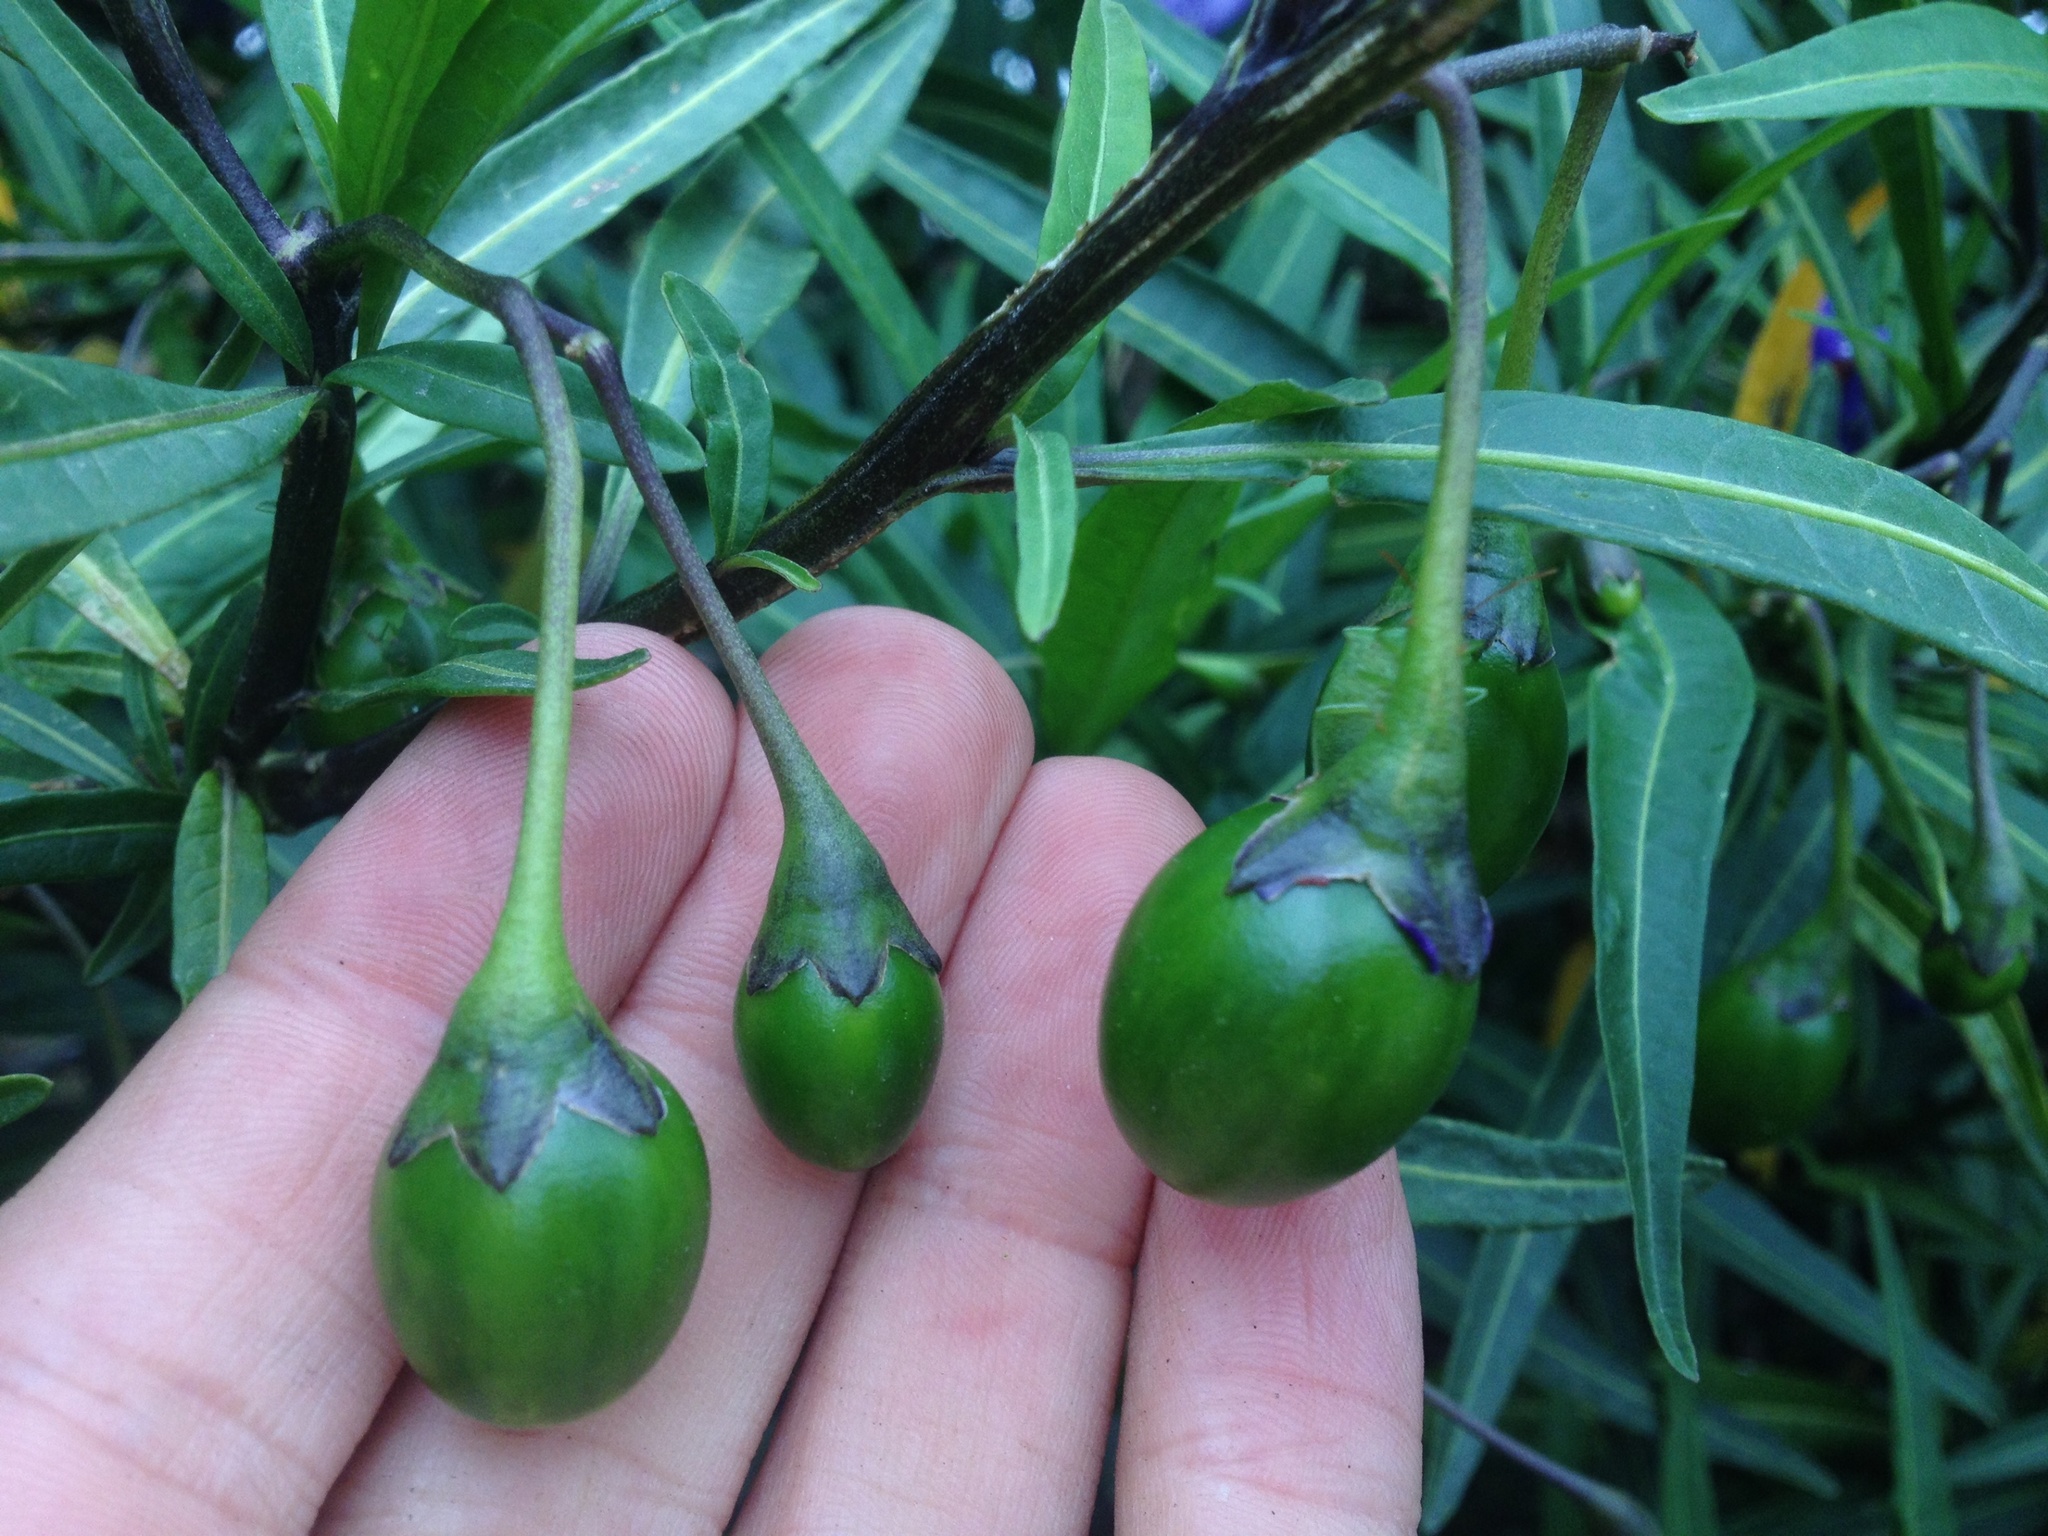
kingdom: Plantae
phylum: Tracheophyta
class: Magnoliopsida
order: Solanales
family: Solanaceae
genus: Solanum
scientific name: Solanum laciniatum
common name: Kangaroo-apple
